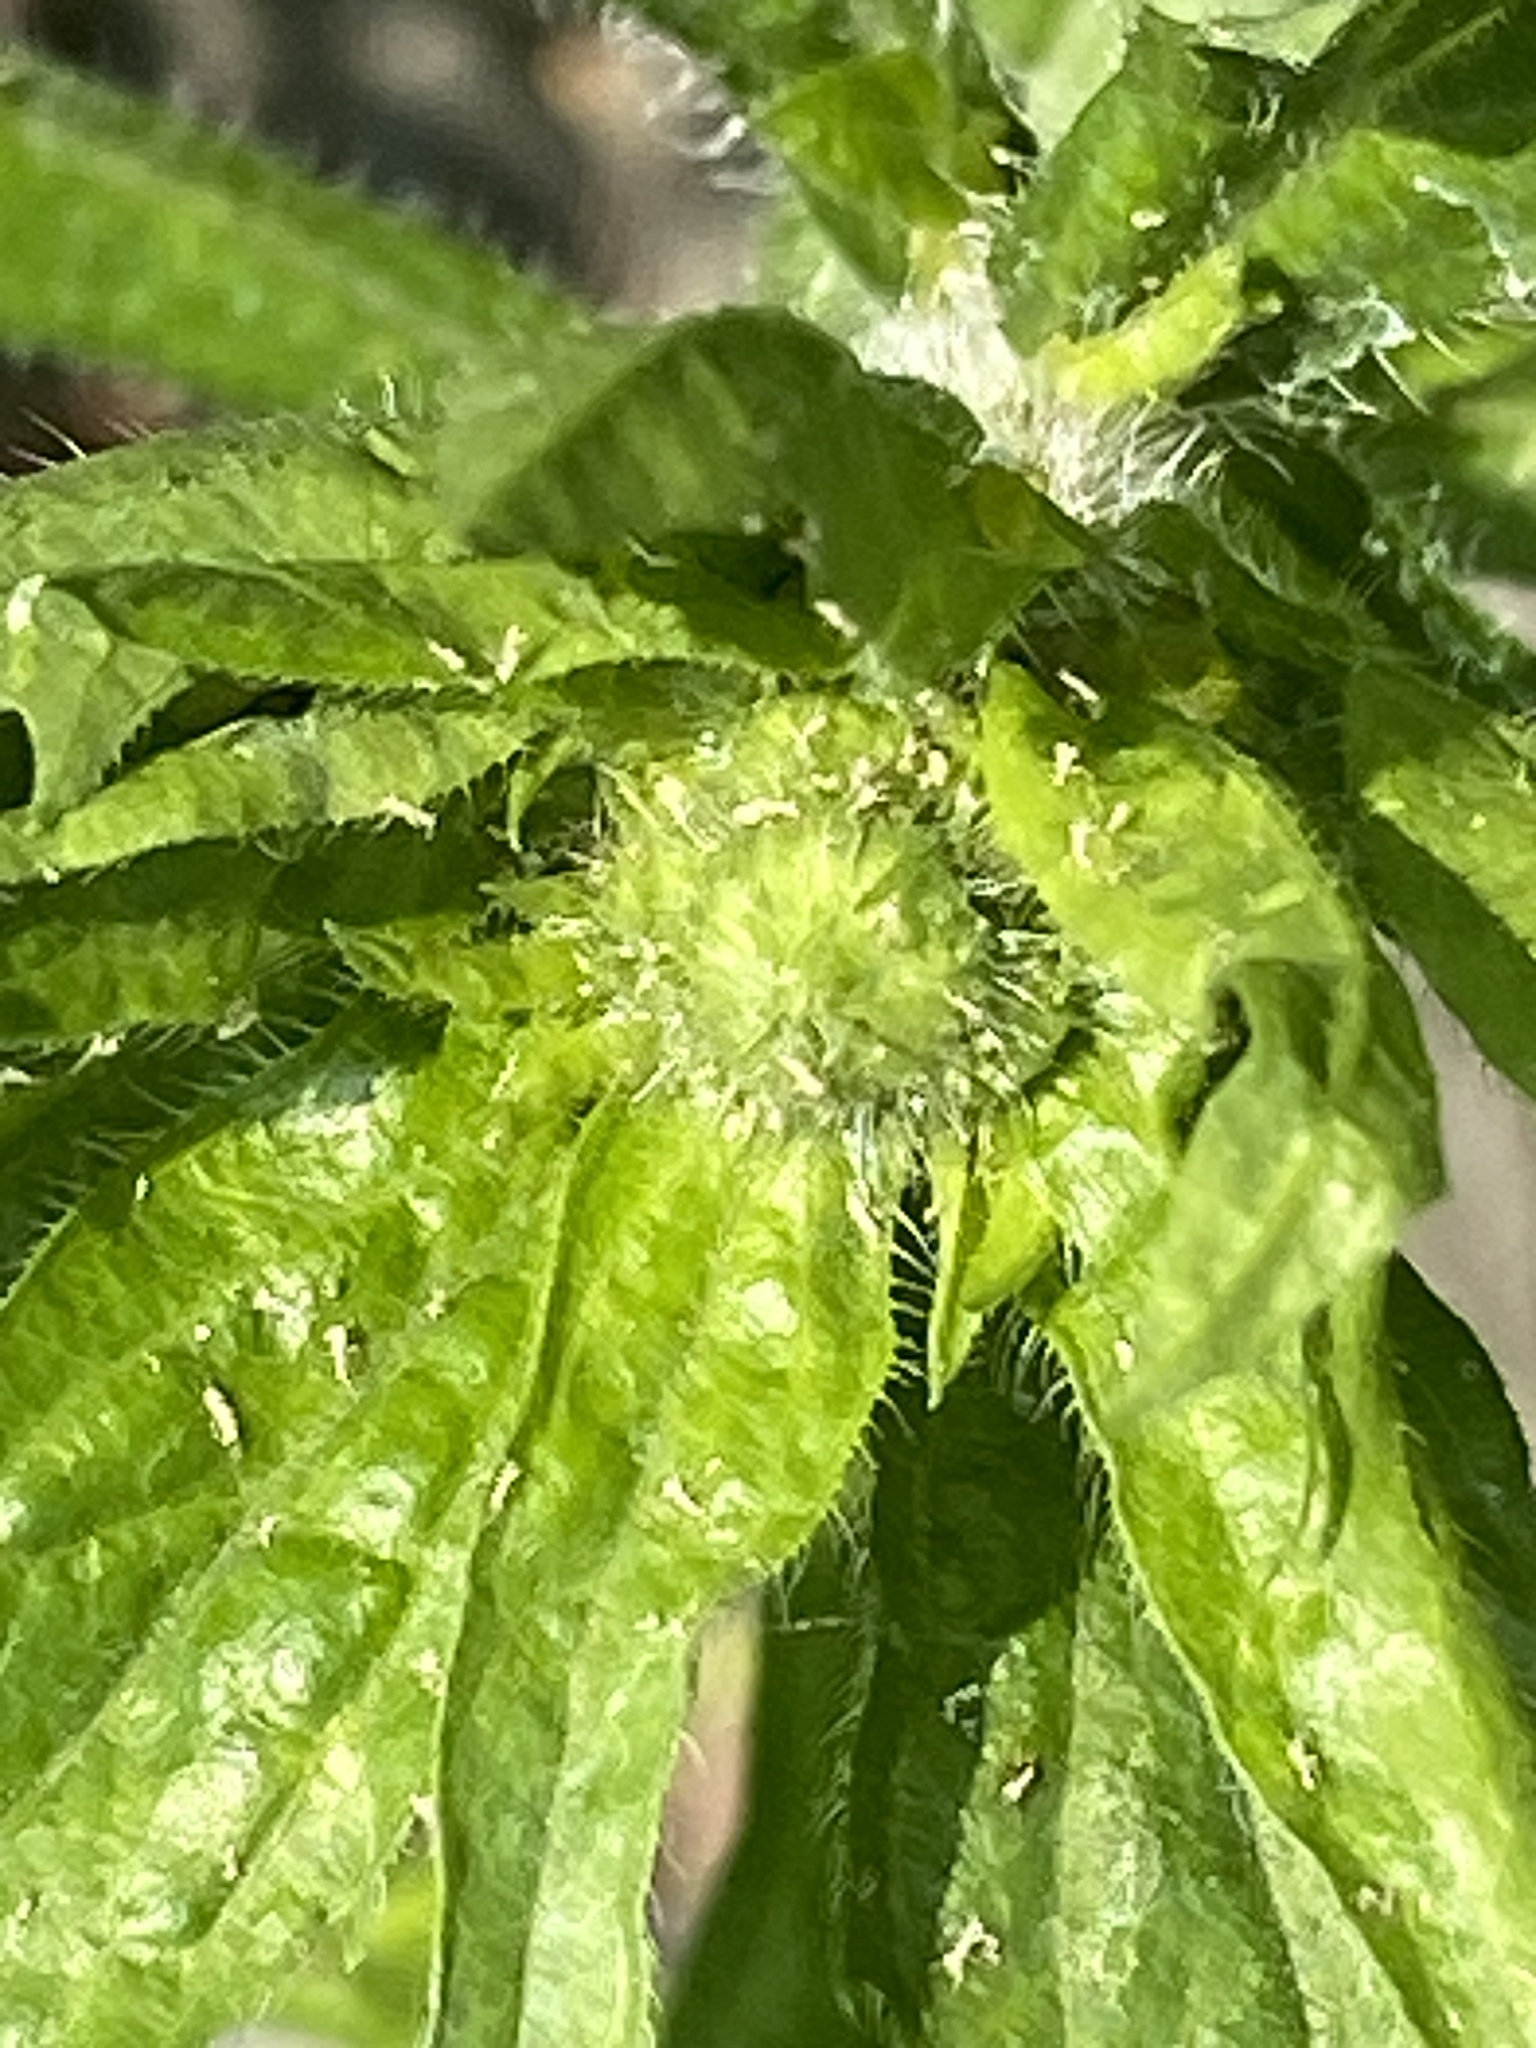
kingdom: Plantae
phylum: Tracheophyta
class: Magnoliopsida
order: Asterales
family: Asteraceae
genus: Erigeron
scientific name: Erigeron annuus
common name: Tall fleabane
